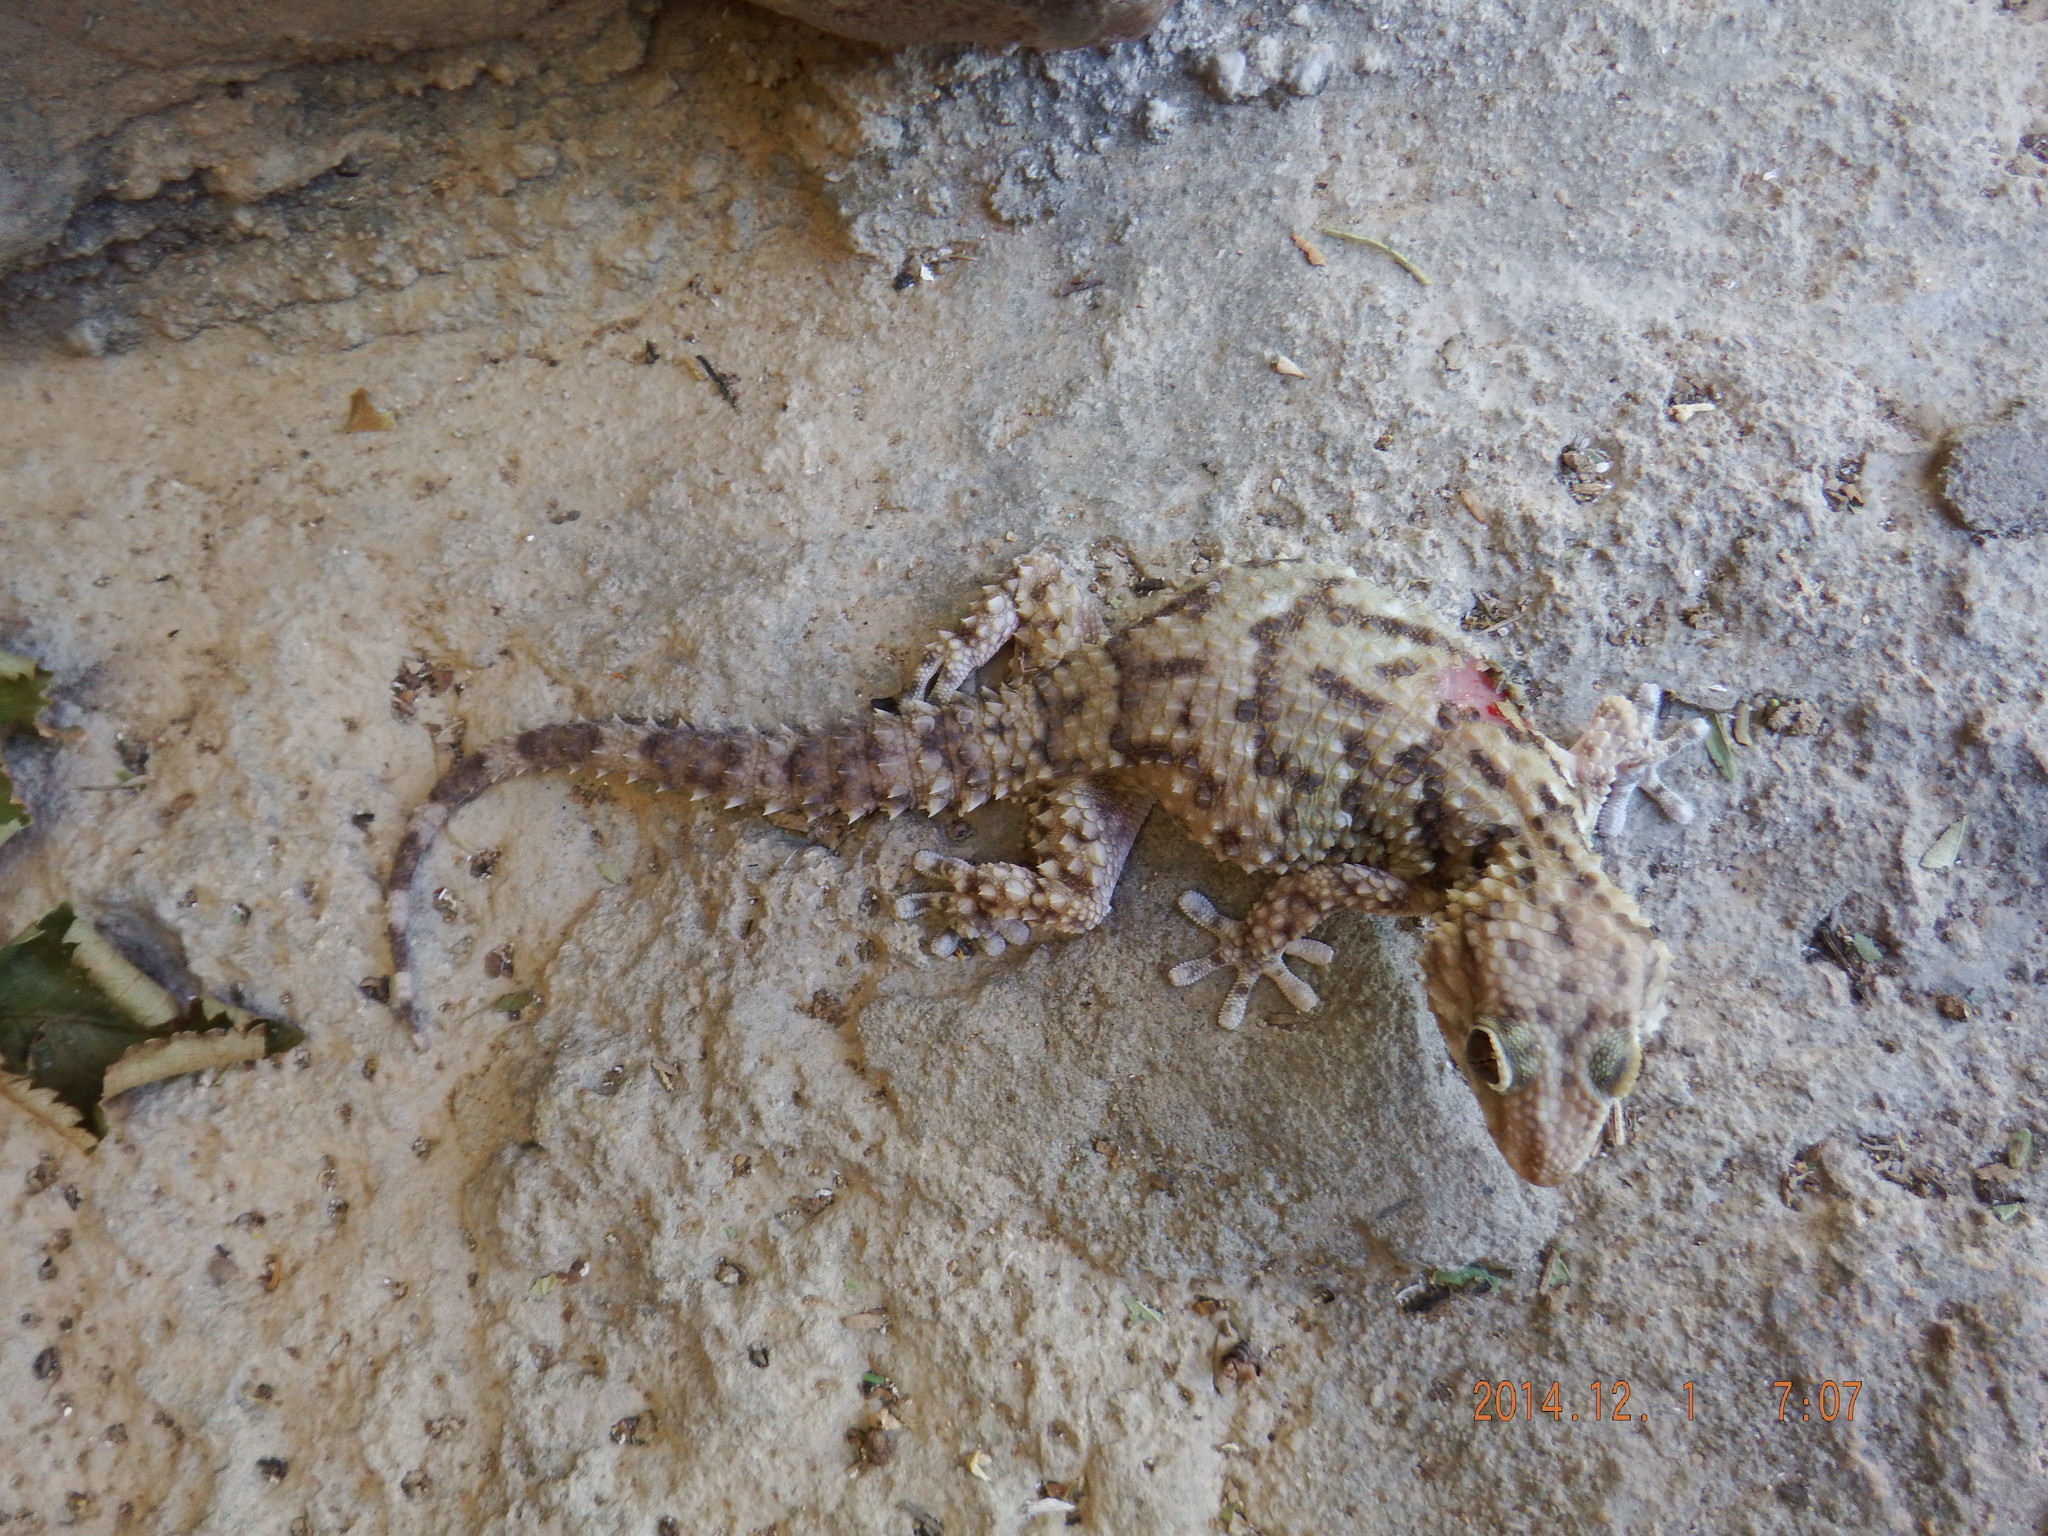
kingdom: Animalia
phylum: Chordata
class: Squamata
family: Gekkonidae
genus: Chondrodactylus
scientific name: Chondrodactylus bibronii
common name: Bibron's gecko
